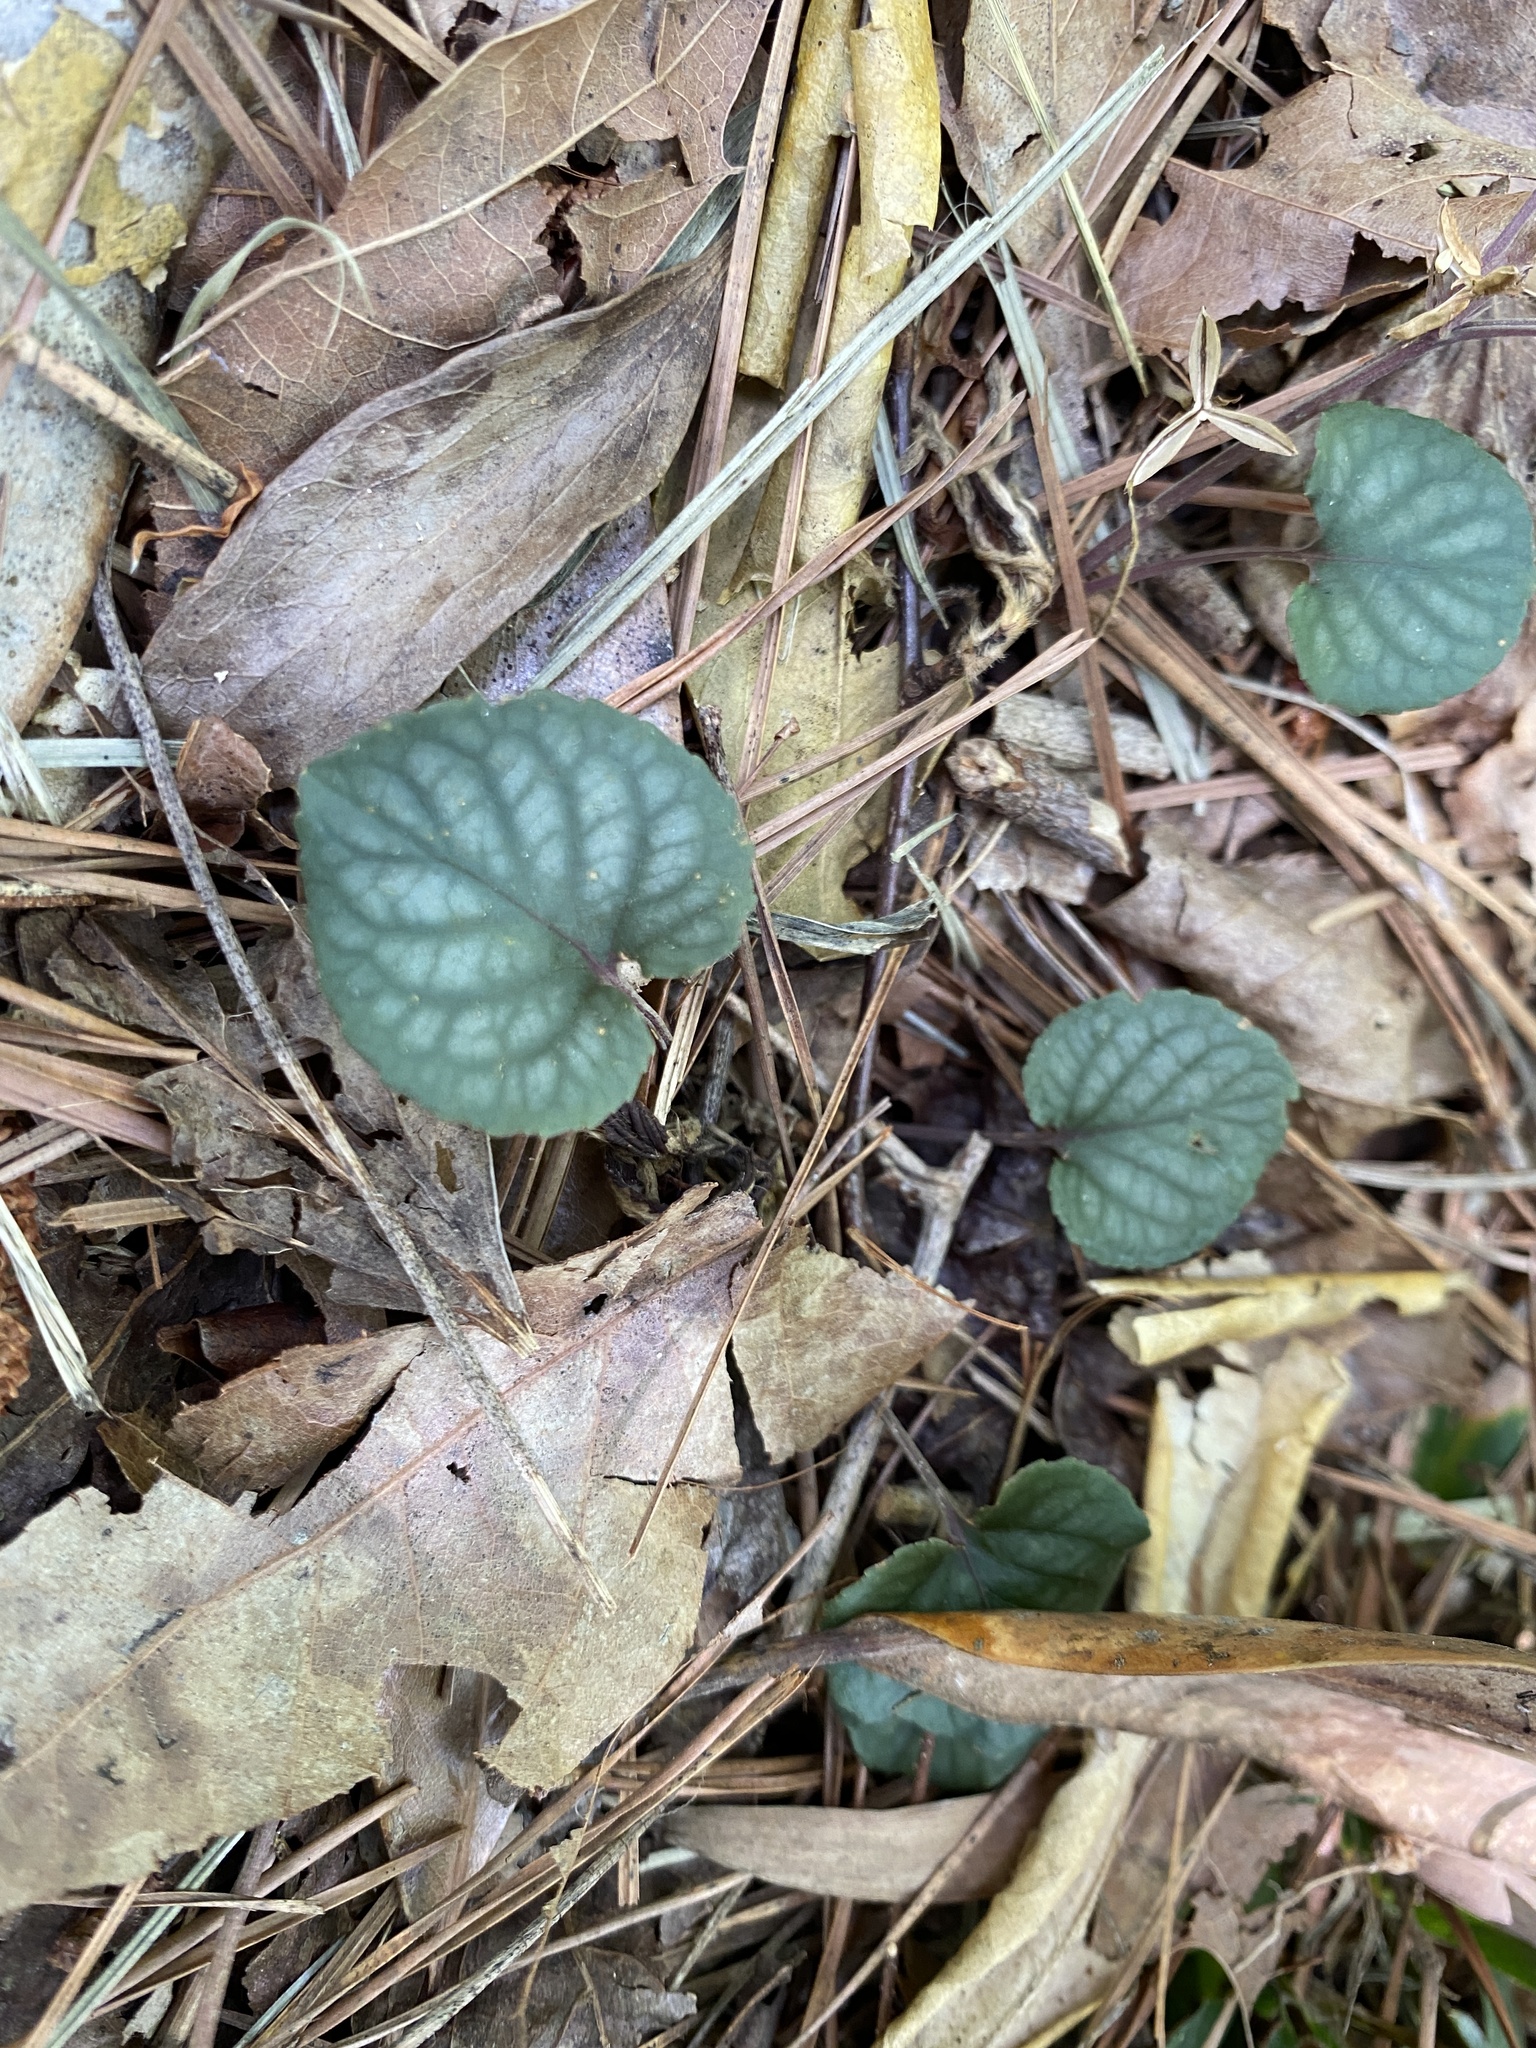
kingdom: Plantae
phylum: Tracheophyta
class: Magnoliopsida
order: Malpighiales
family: Violaceae
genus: Viola
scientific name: Viola walteri
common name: Prostrate southern violet
